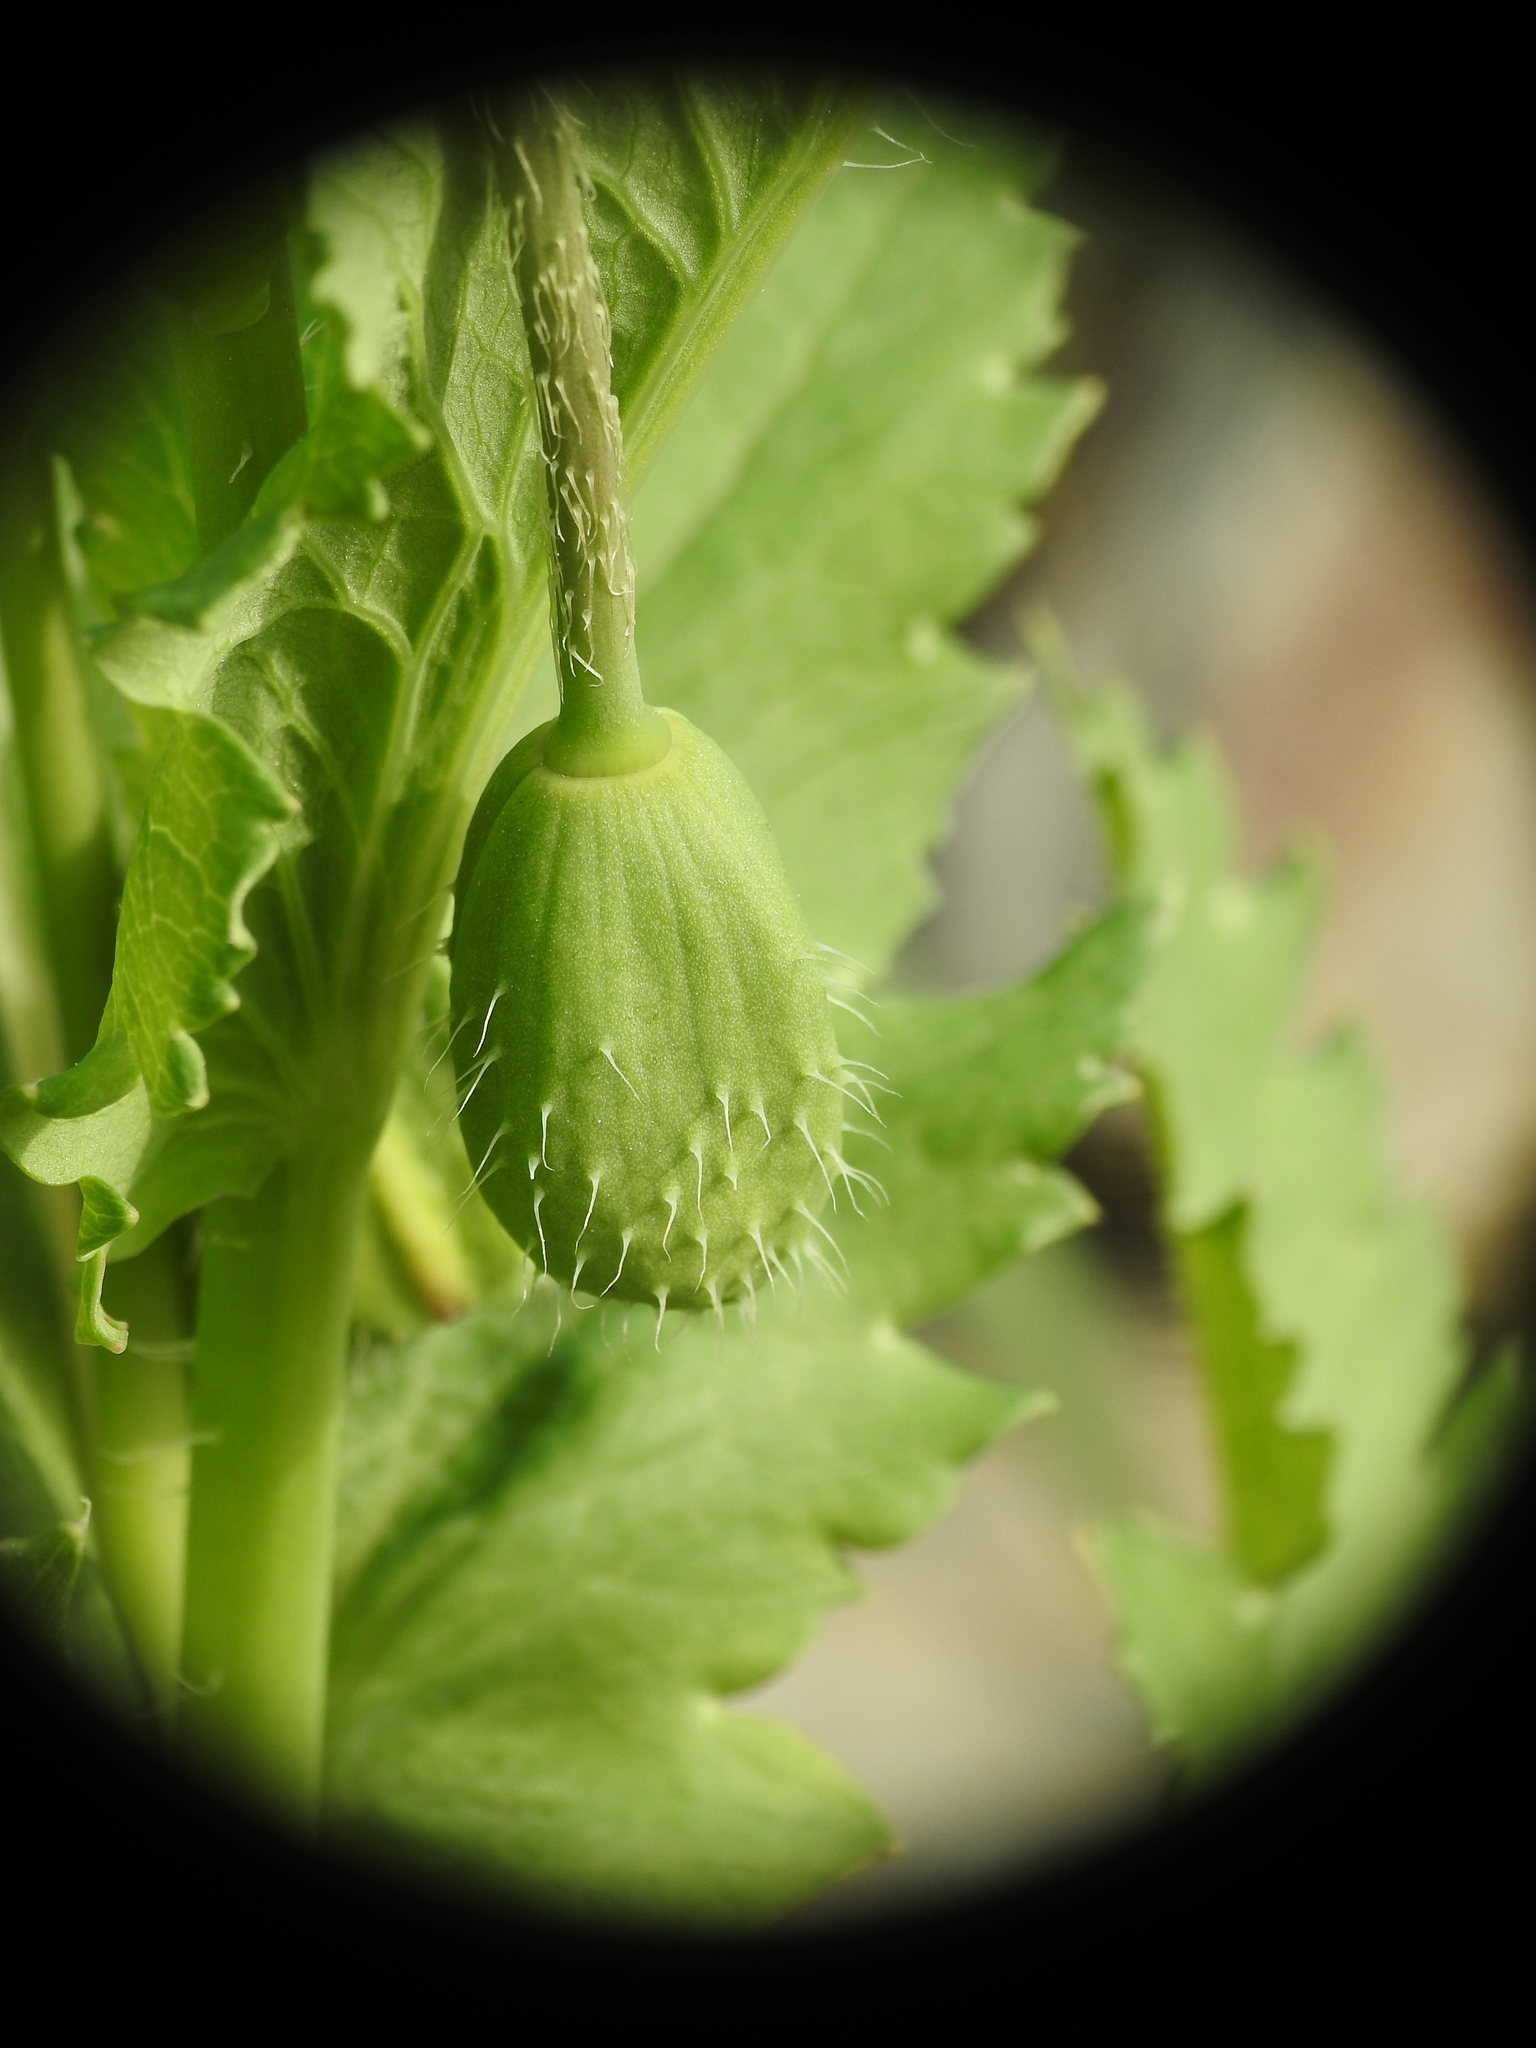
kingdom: Plantae
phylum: Tracheophyta
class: Magnoliopsida
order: Ranunculales
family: Papaveraceae
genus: Papaver
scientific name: Papaver somniferum
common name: Opium poppy
